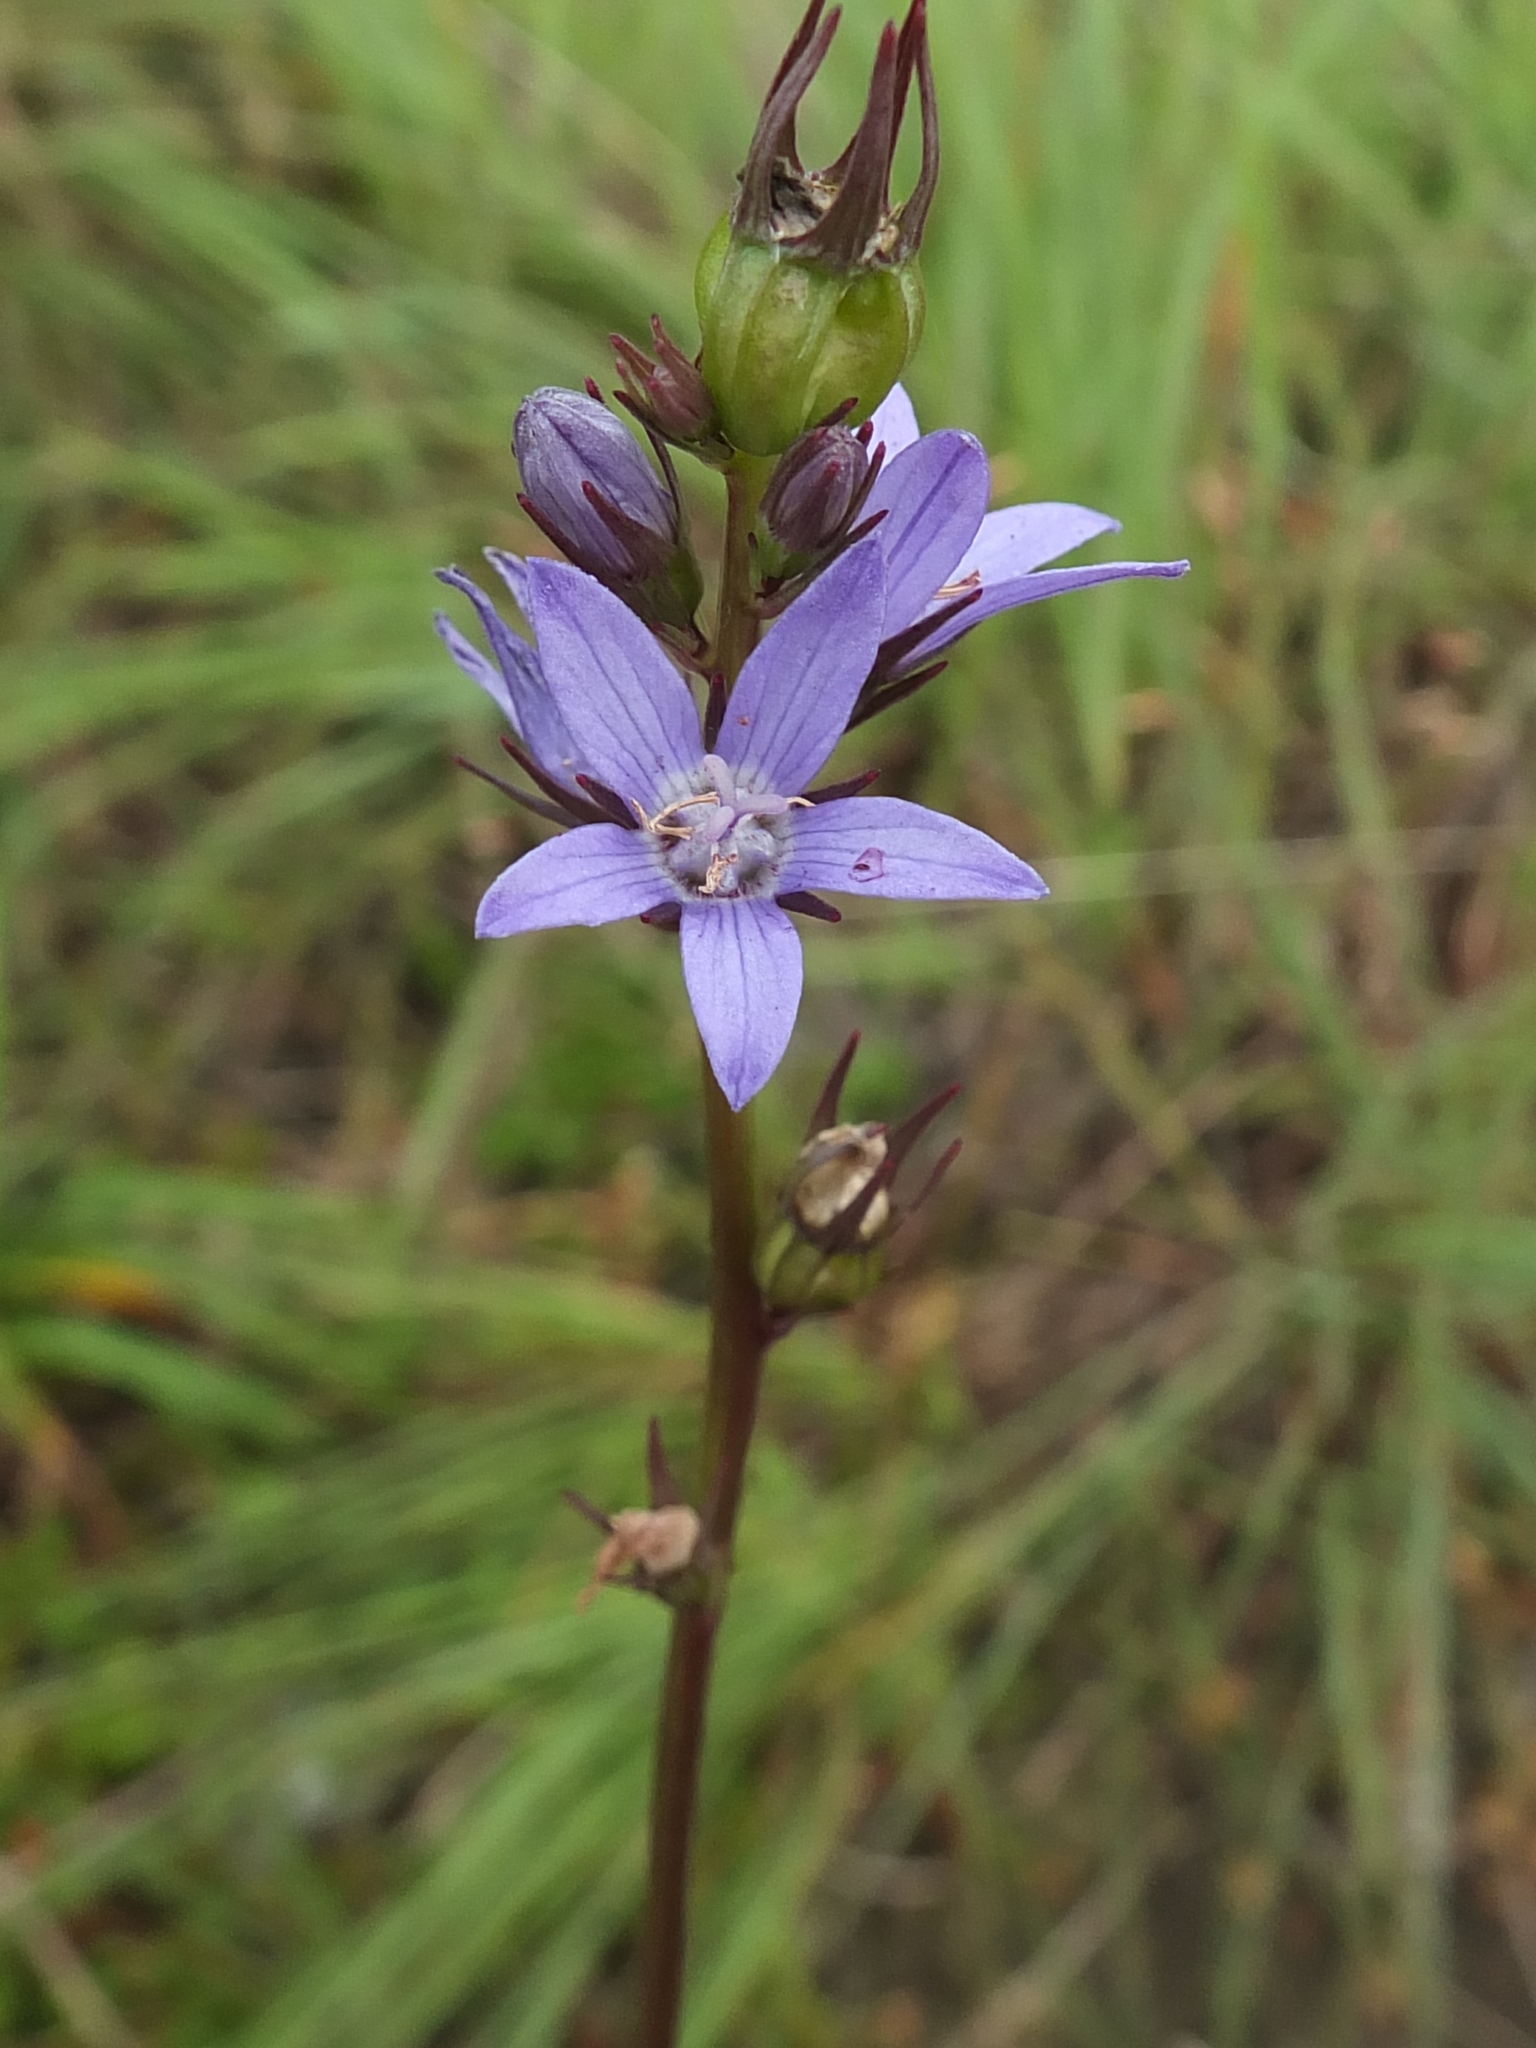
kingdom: Plantae
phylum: Tracheophyta
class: Magnoliopsida
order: Asterales
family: Campanulaceae
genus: Asyneuma
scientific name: Asyneuma fulgens
